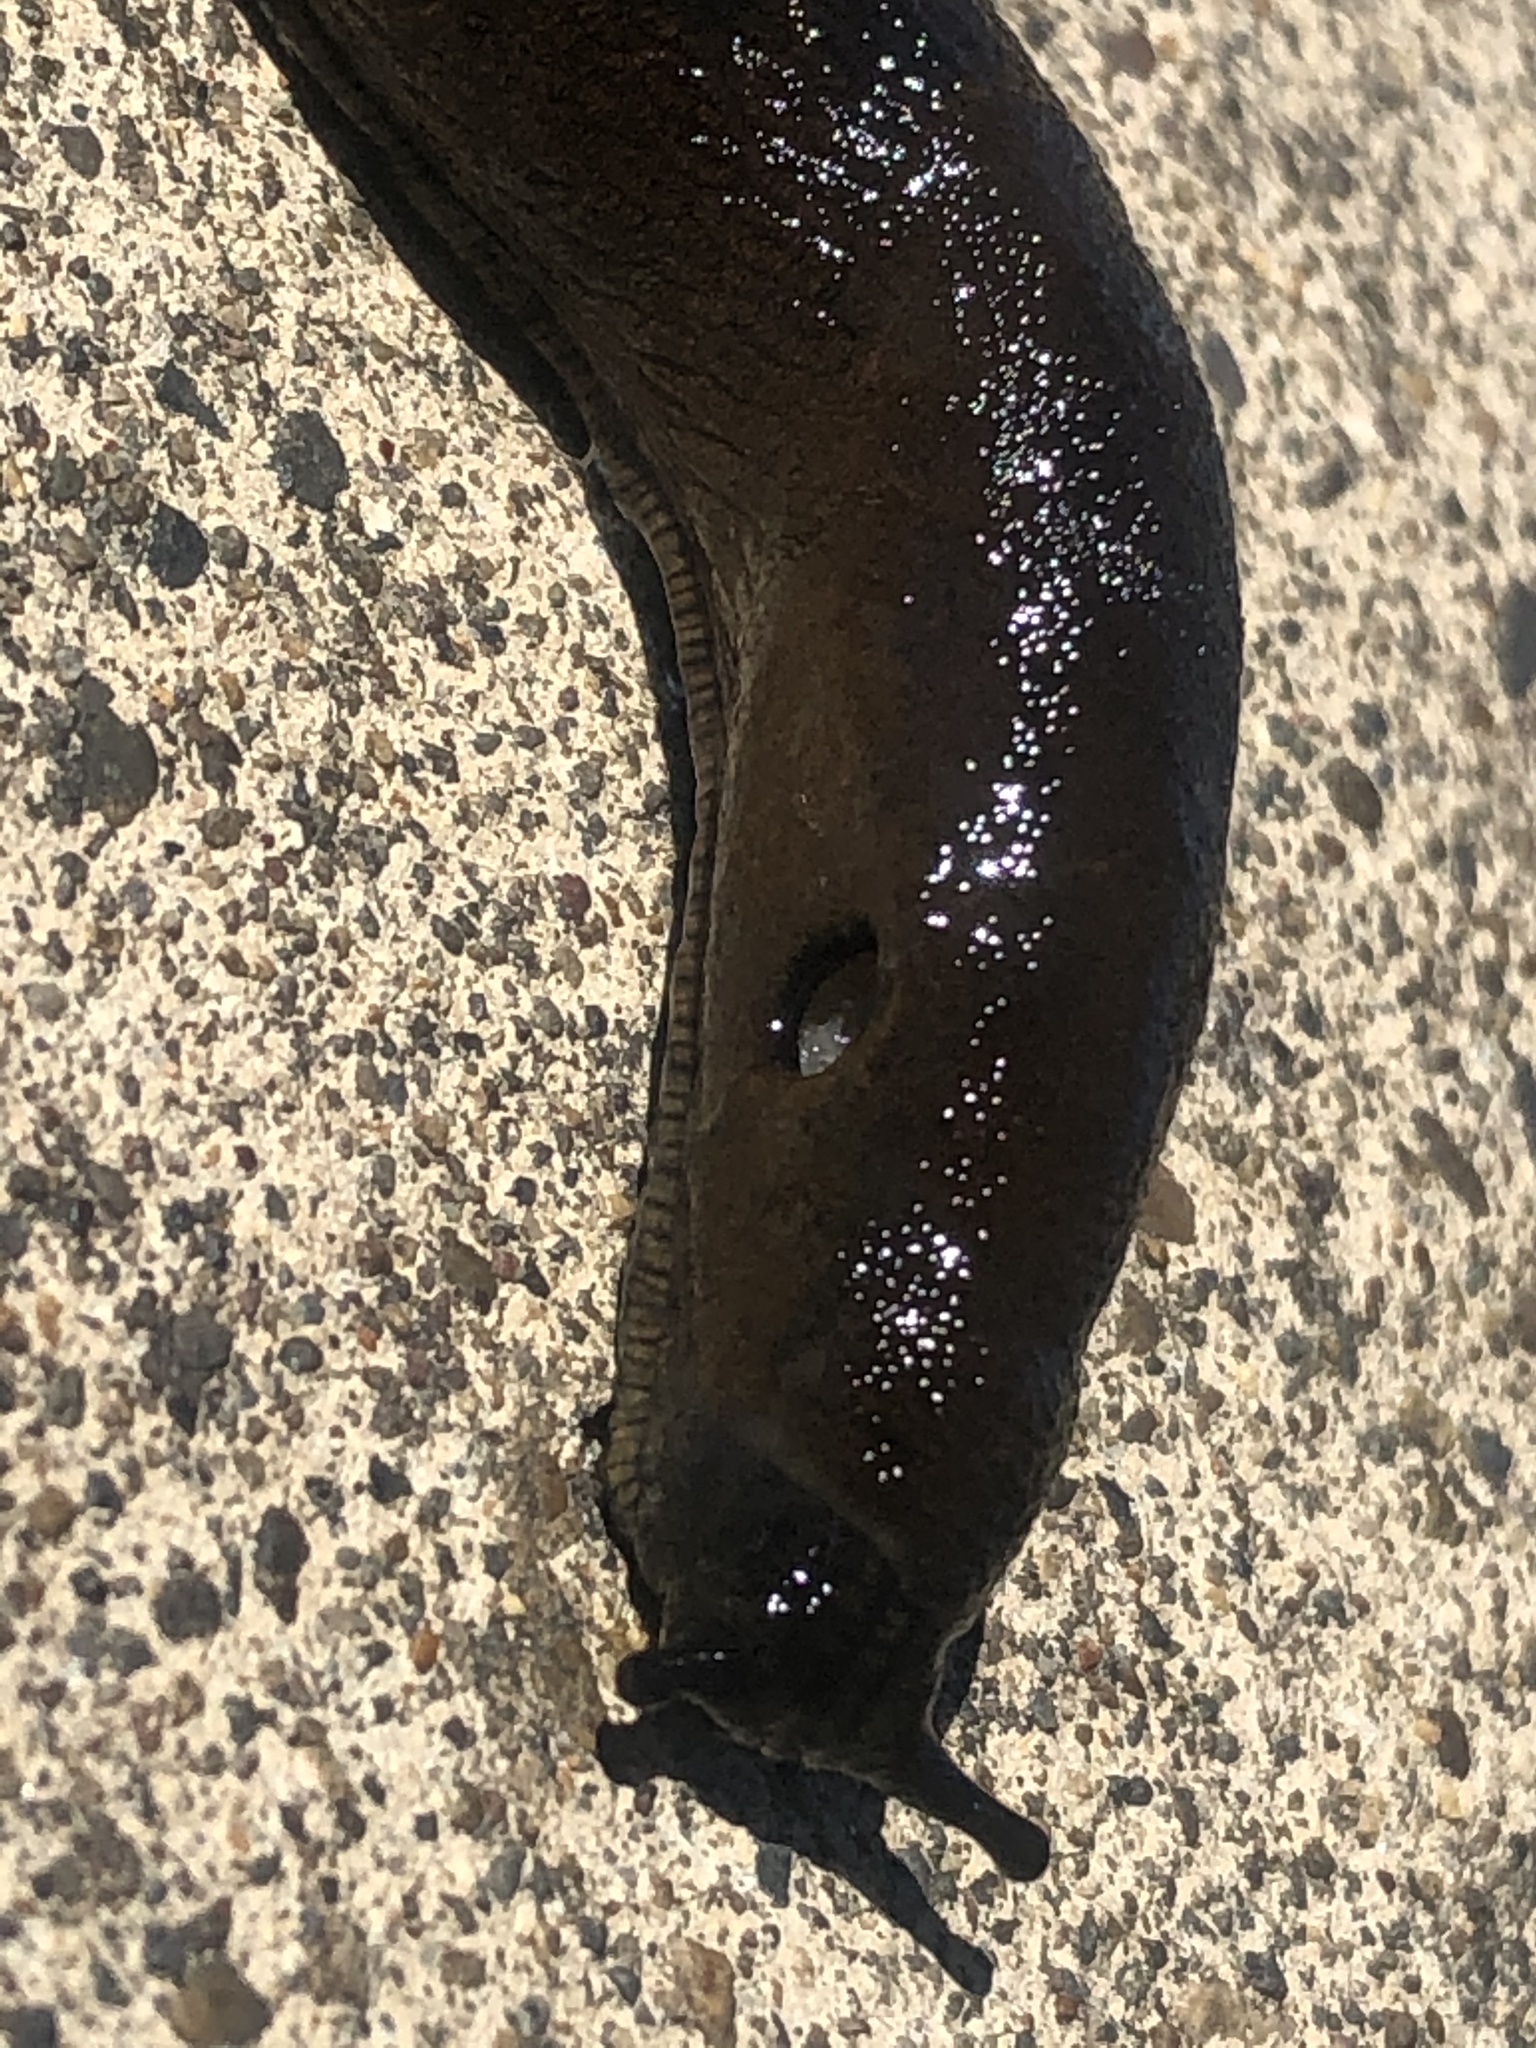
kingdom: Animalia
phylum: Mollusca
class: Gastropoda
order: Stylommatophora
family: Arionidae
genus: Arion
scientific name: Arion
